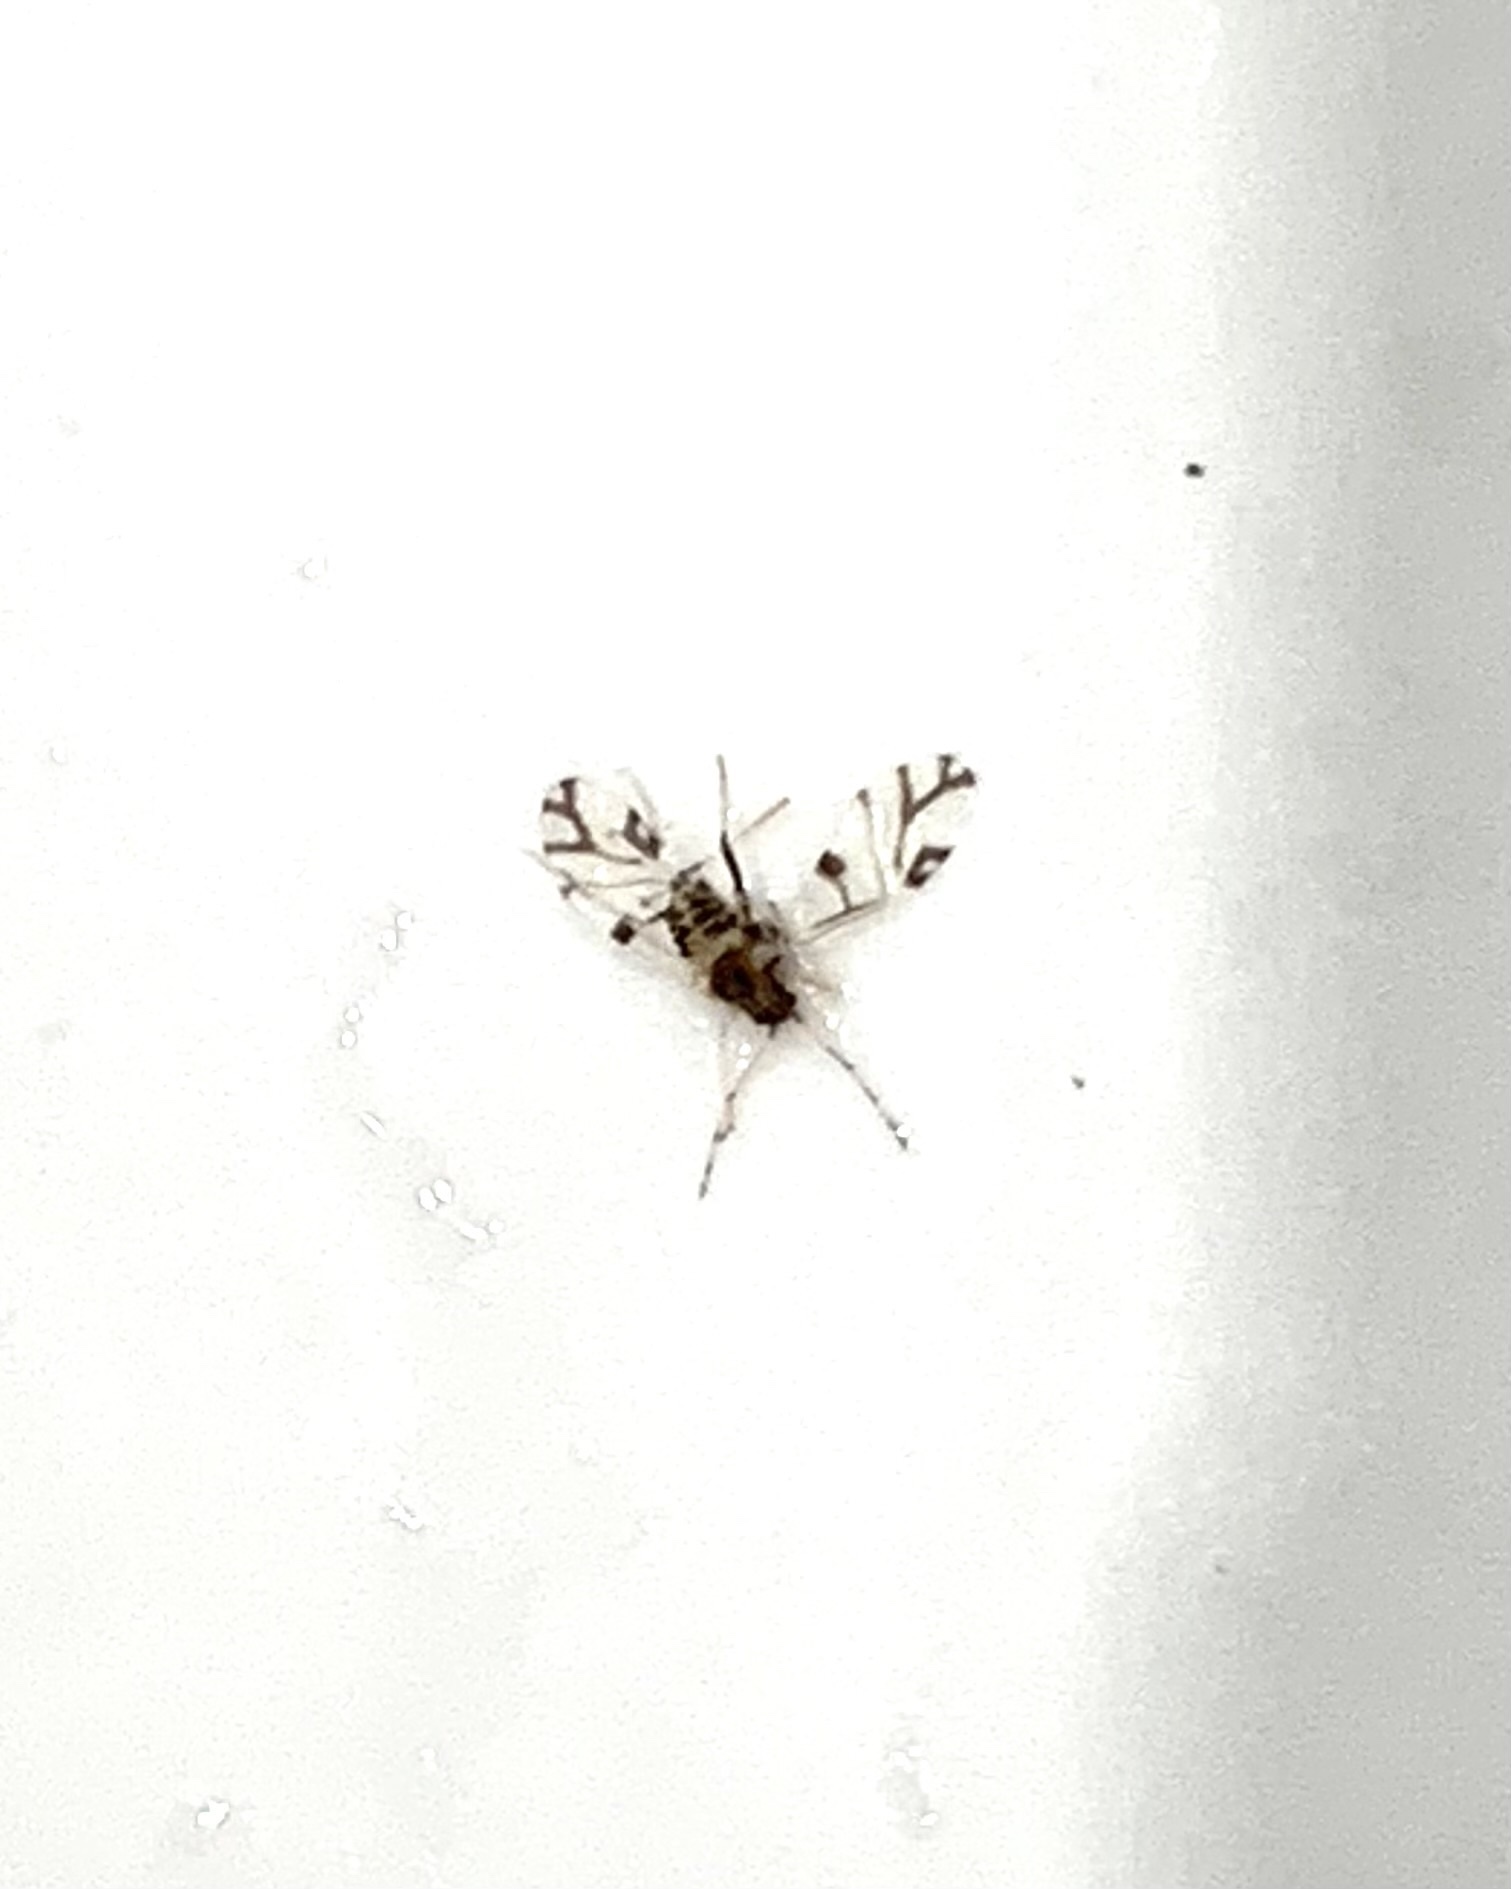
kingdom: Animalia
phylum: Arthropoda
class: Insecta
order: Hemiptera
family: Aphididae
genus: Tinocallis
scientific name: Tinocallis platani
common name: Elm aphid
